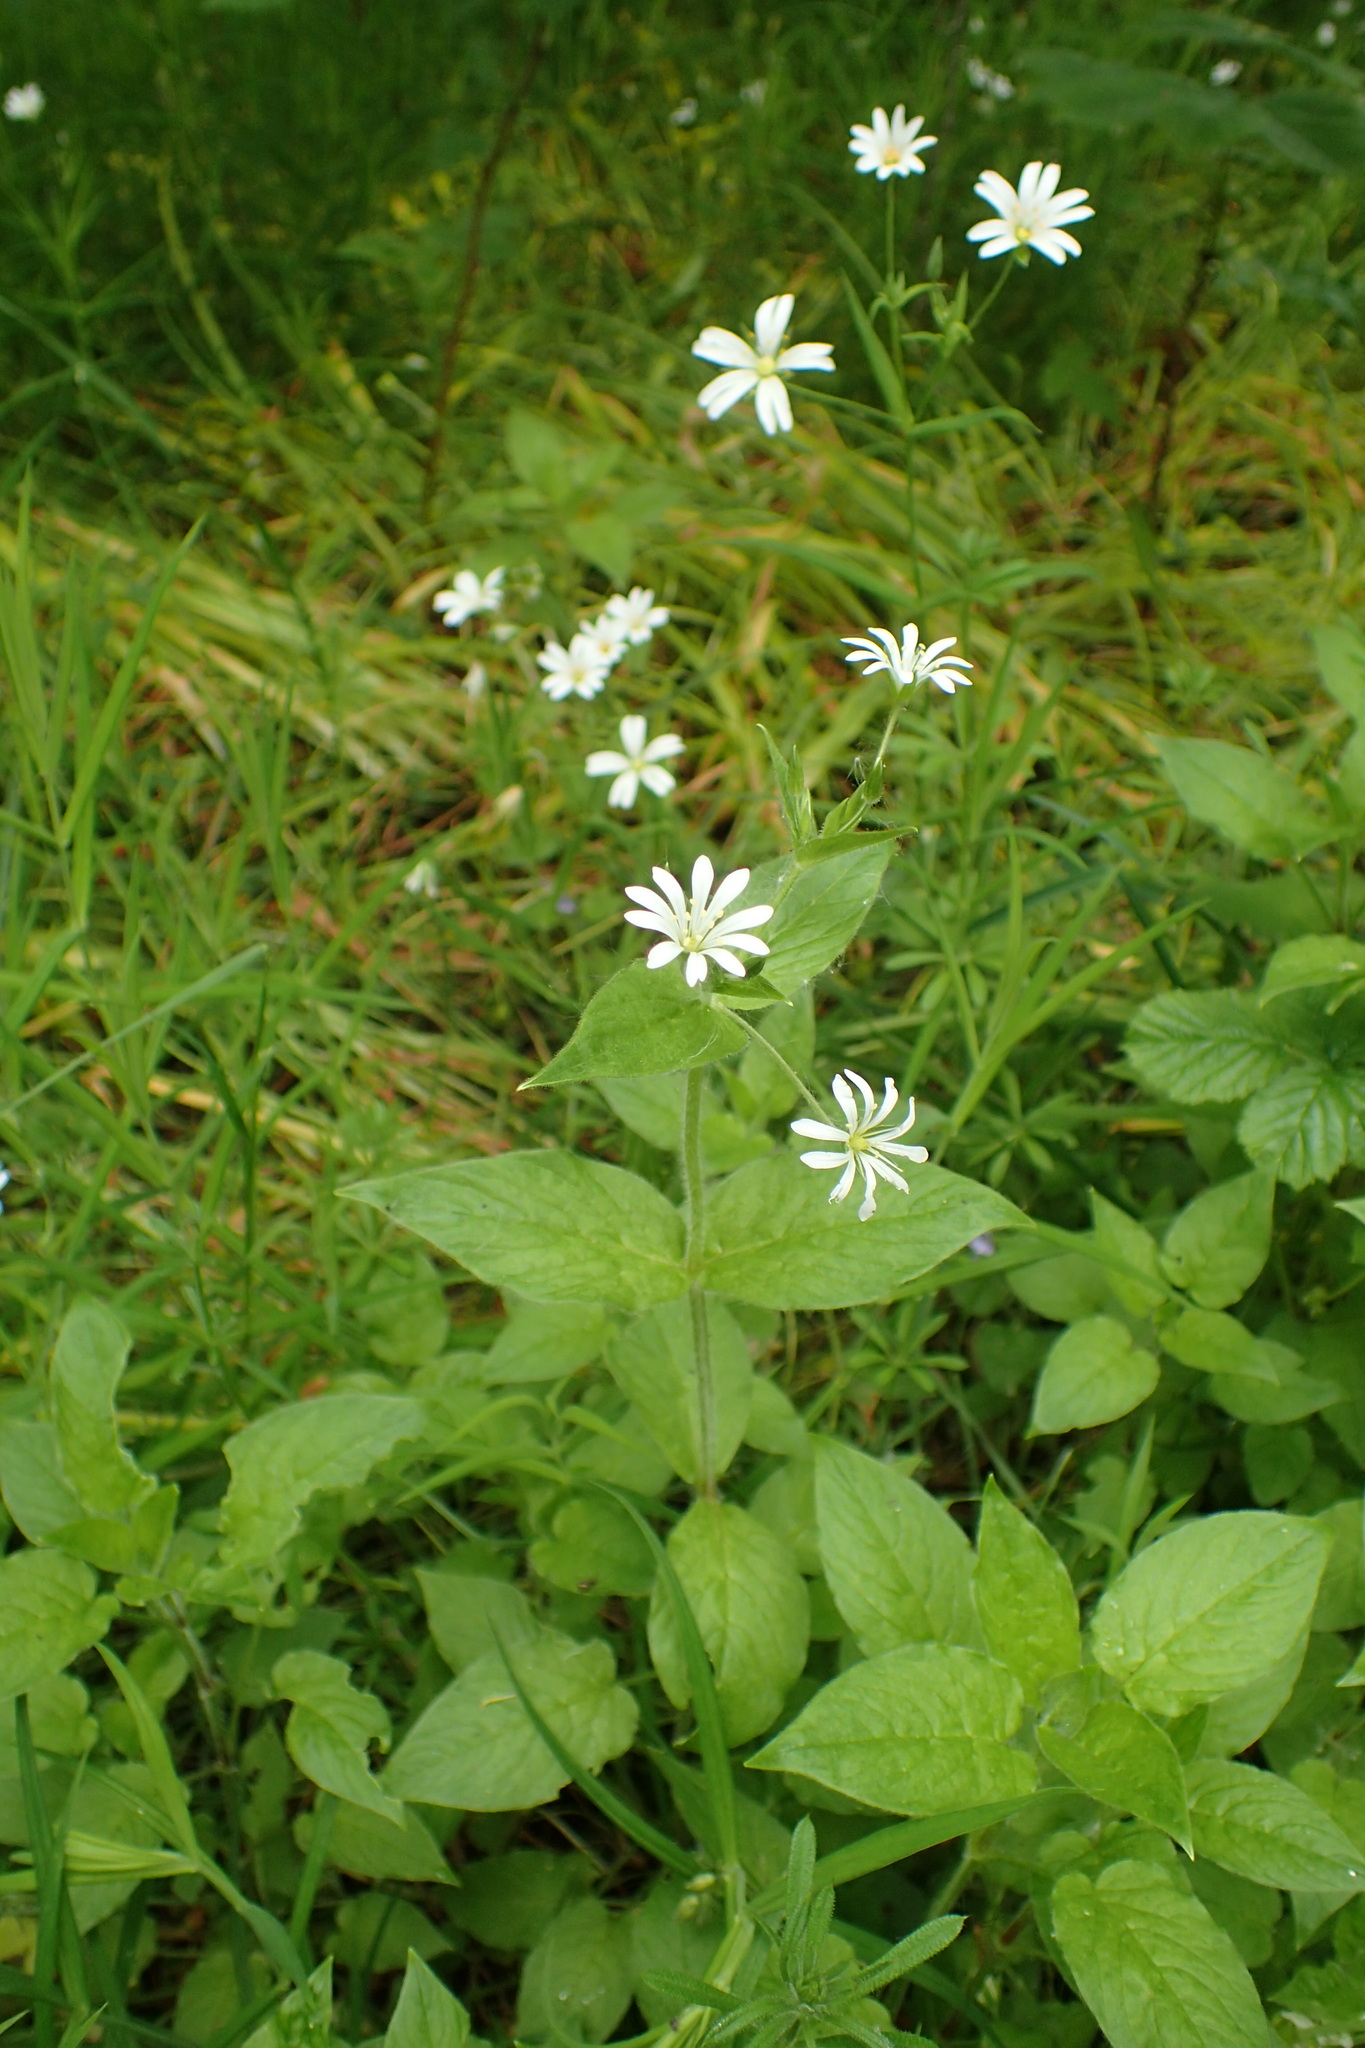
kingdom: Plantae
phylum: Tracheophyta
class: Magnoliopsida
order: Caryophyllales
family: Caryophyllaceae
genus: Stellaria
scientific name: Stellaria nemorum
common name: Wood stitchwort
